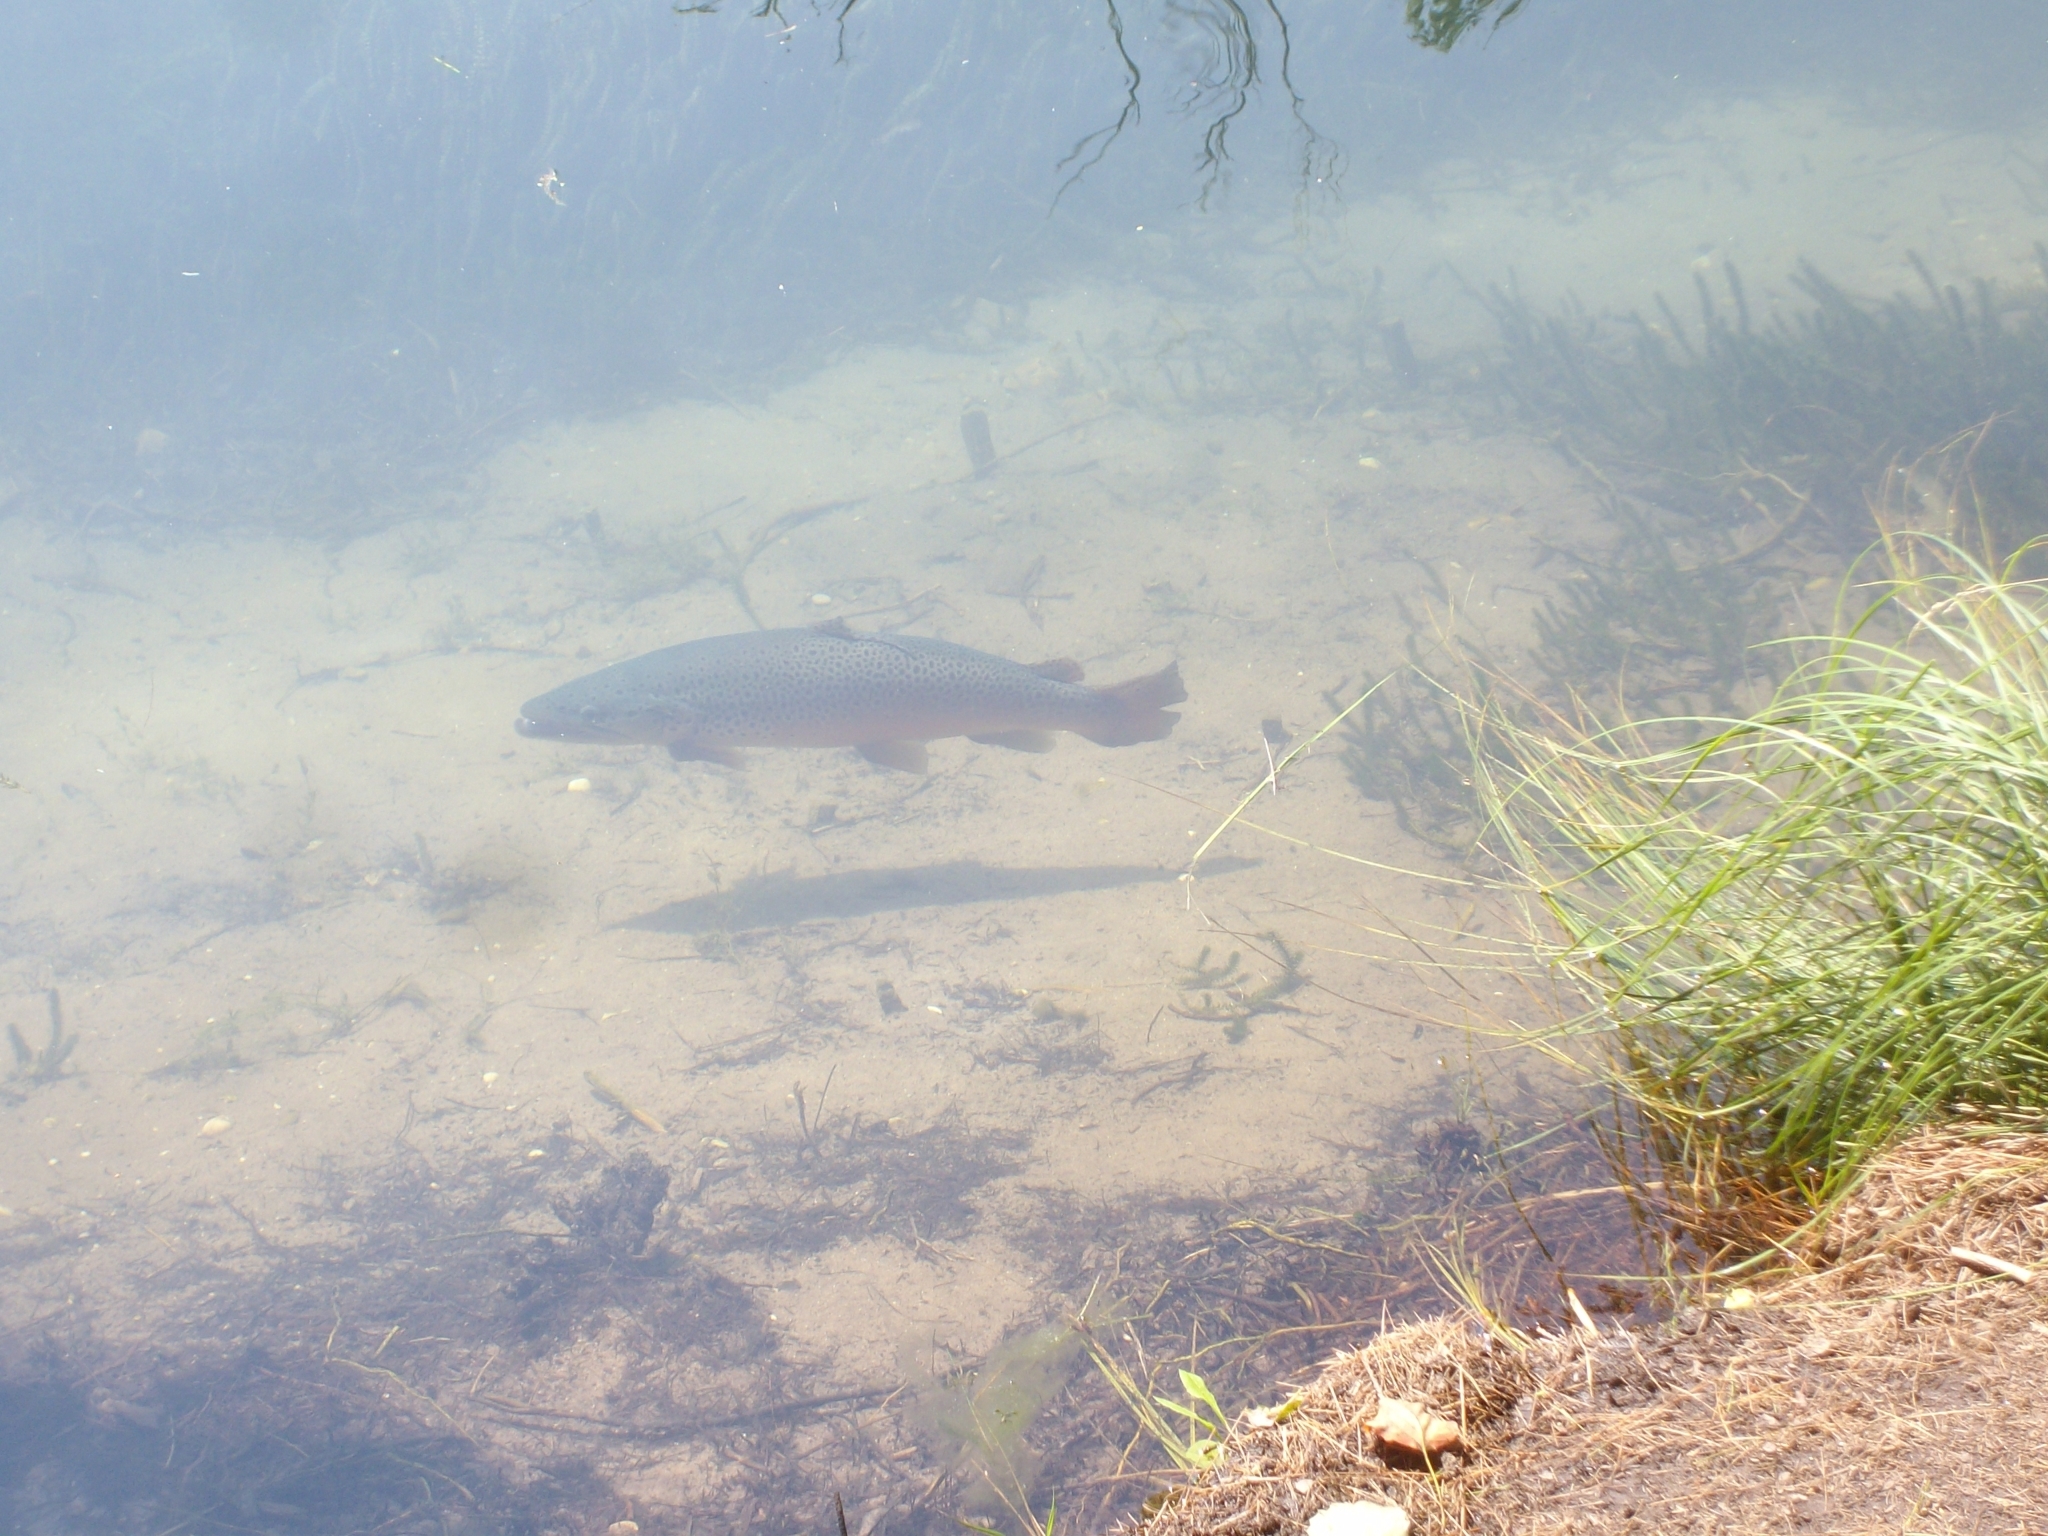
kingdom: Animalia
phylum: Chordata
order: Salmoniformes
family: Salmonidae
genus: Salmo
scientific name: Salmo trutta
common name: Brown trout
